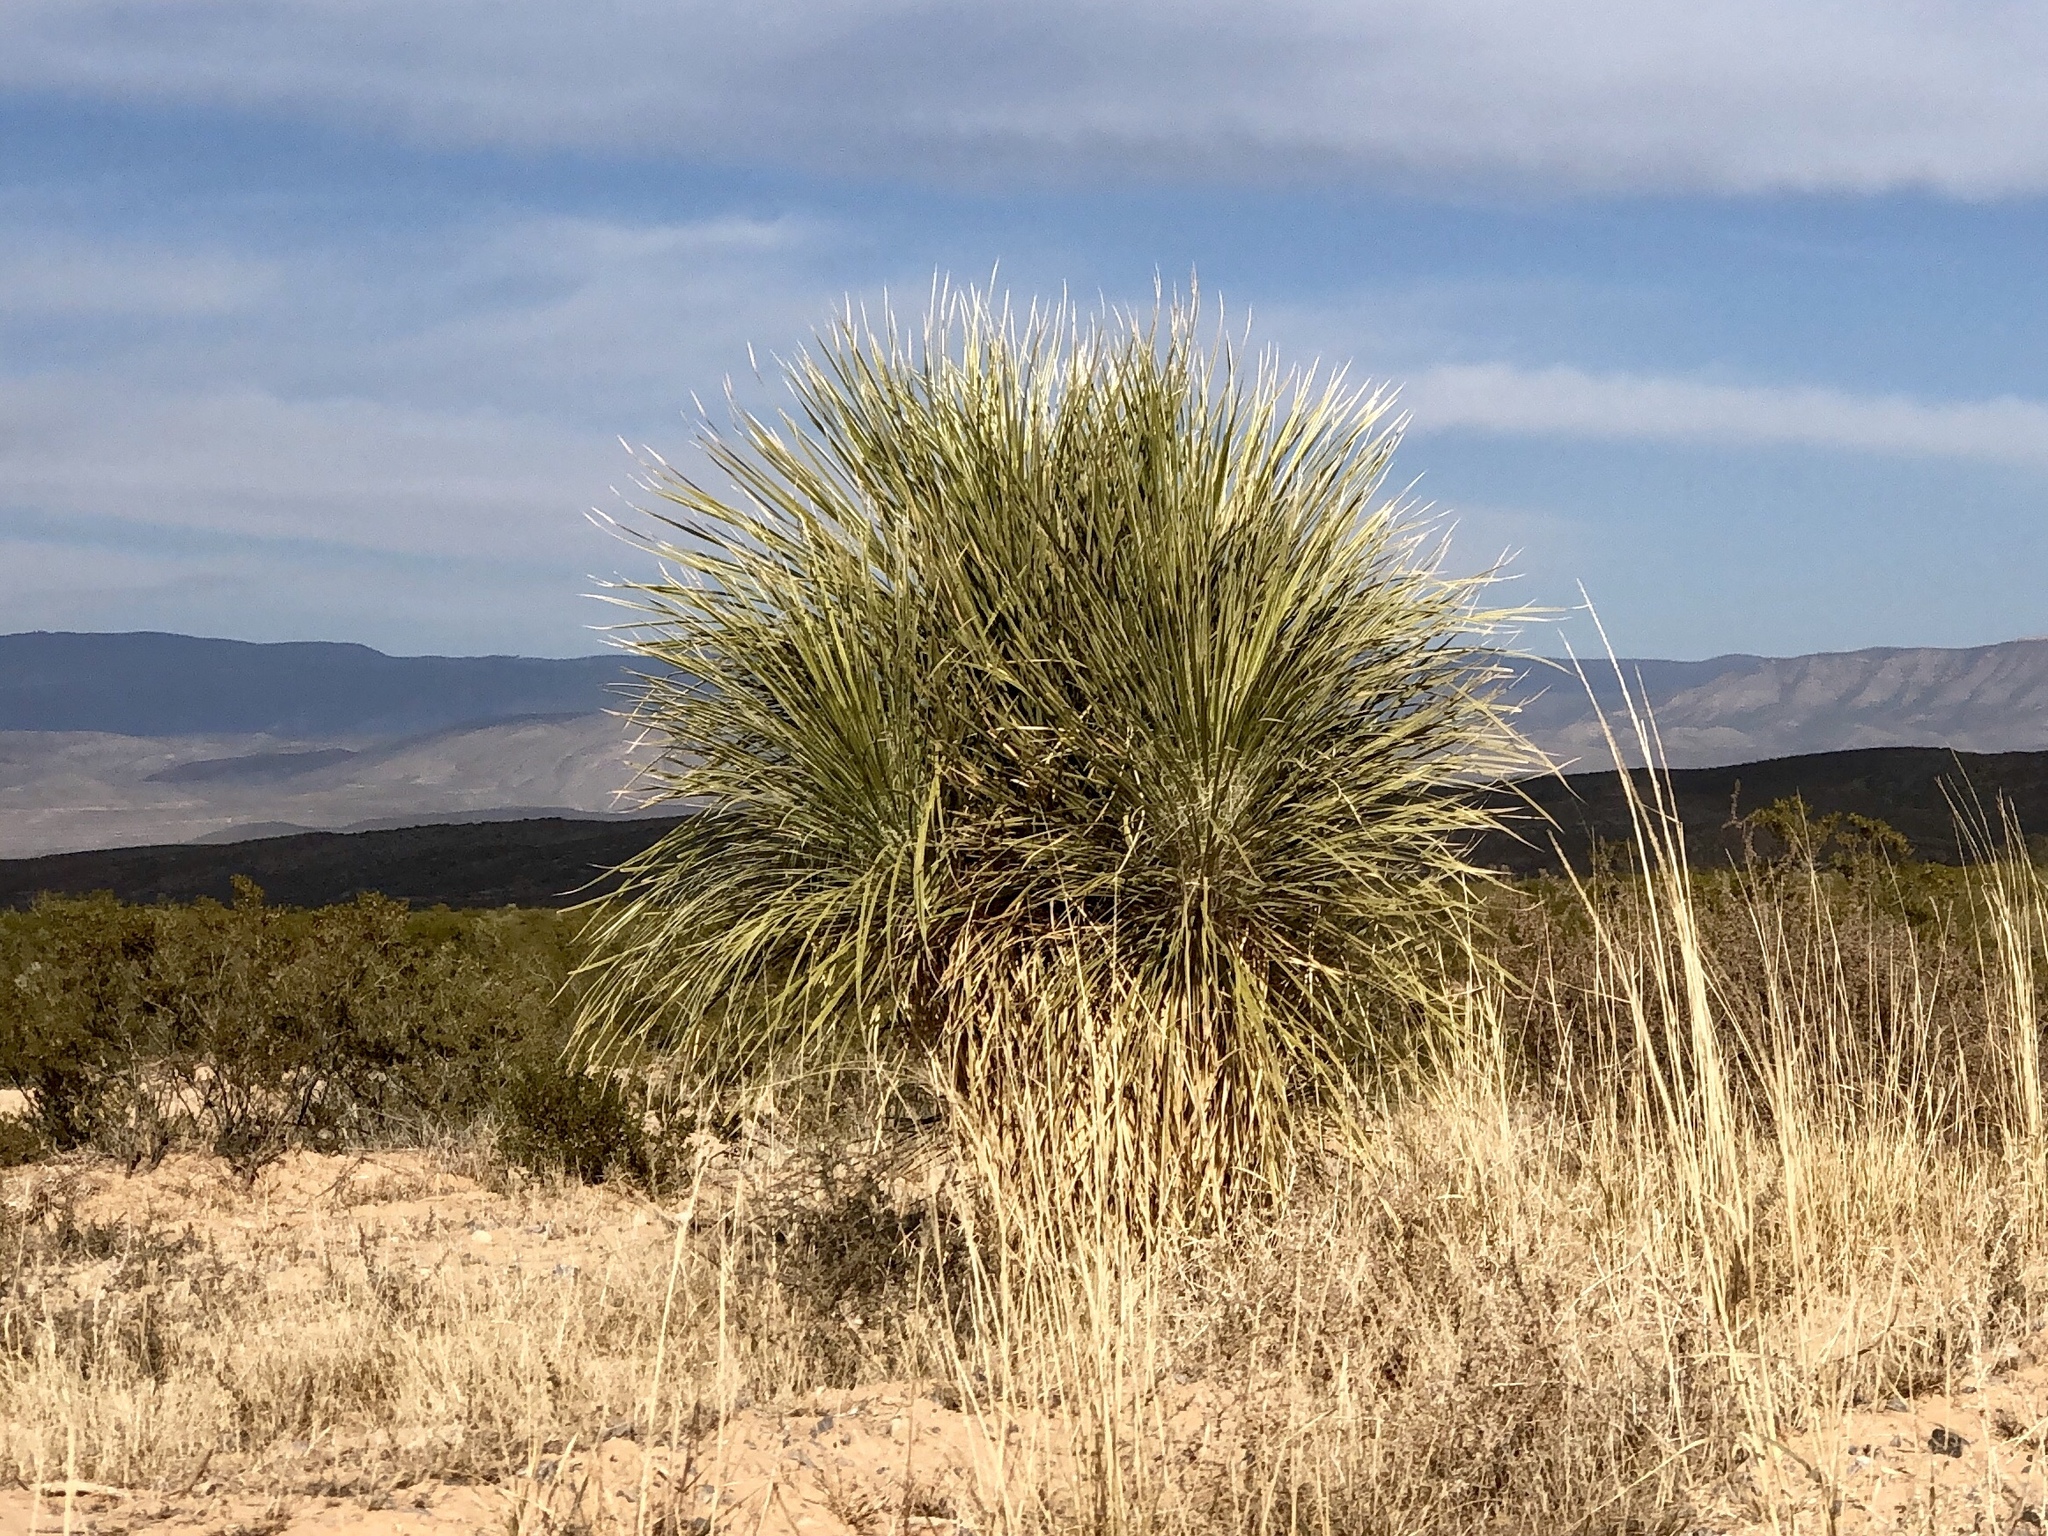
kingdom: Plantae
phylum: Tracheophyta
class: Liliopsida
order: Asparagales
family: Asparagaceae
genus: Yucca
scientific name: Yucca elata
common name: Palmella
